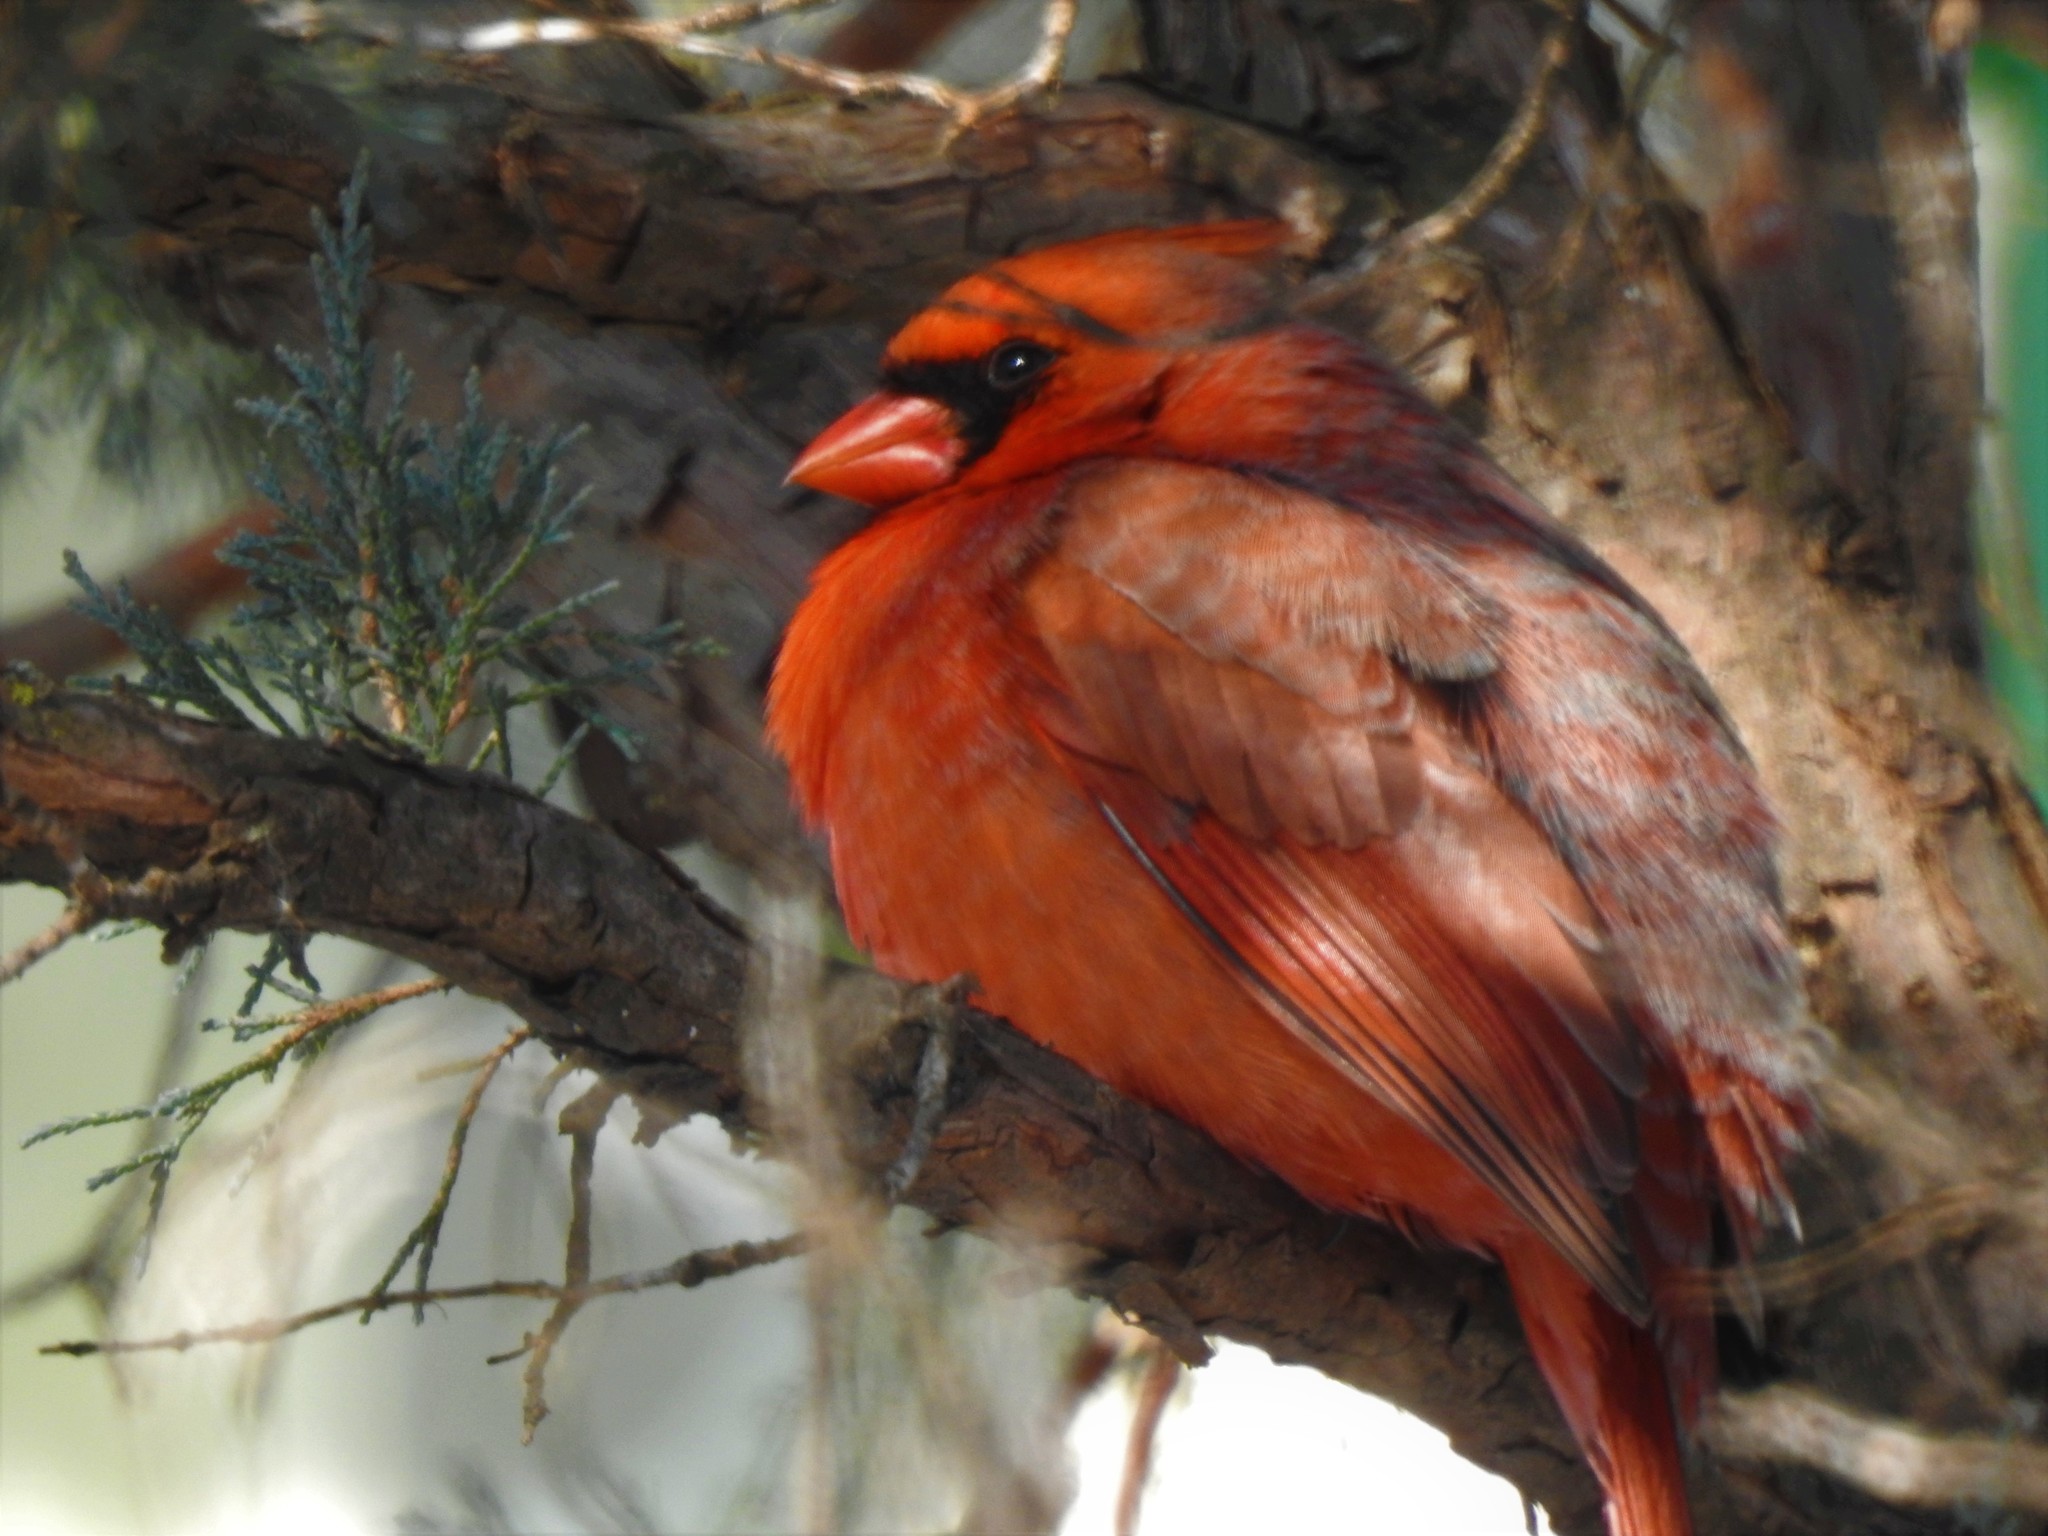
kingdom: Animalia
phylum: Chordata
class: Aves
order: Passeriformes
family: Cardinalidae
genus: Cardinalis
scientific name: Cardinalis cardinalis
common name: Northern cardinal
